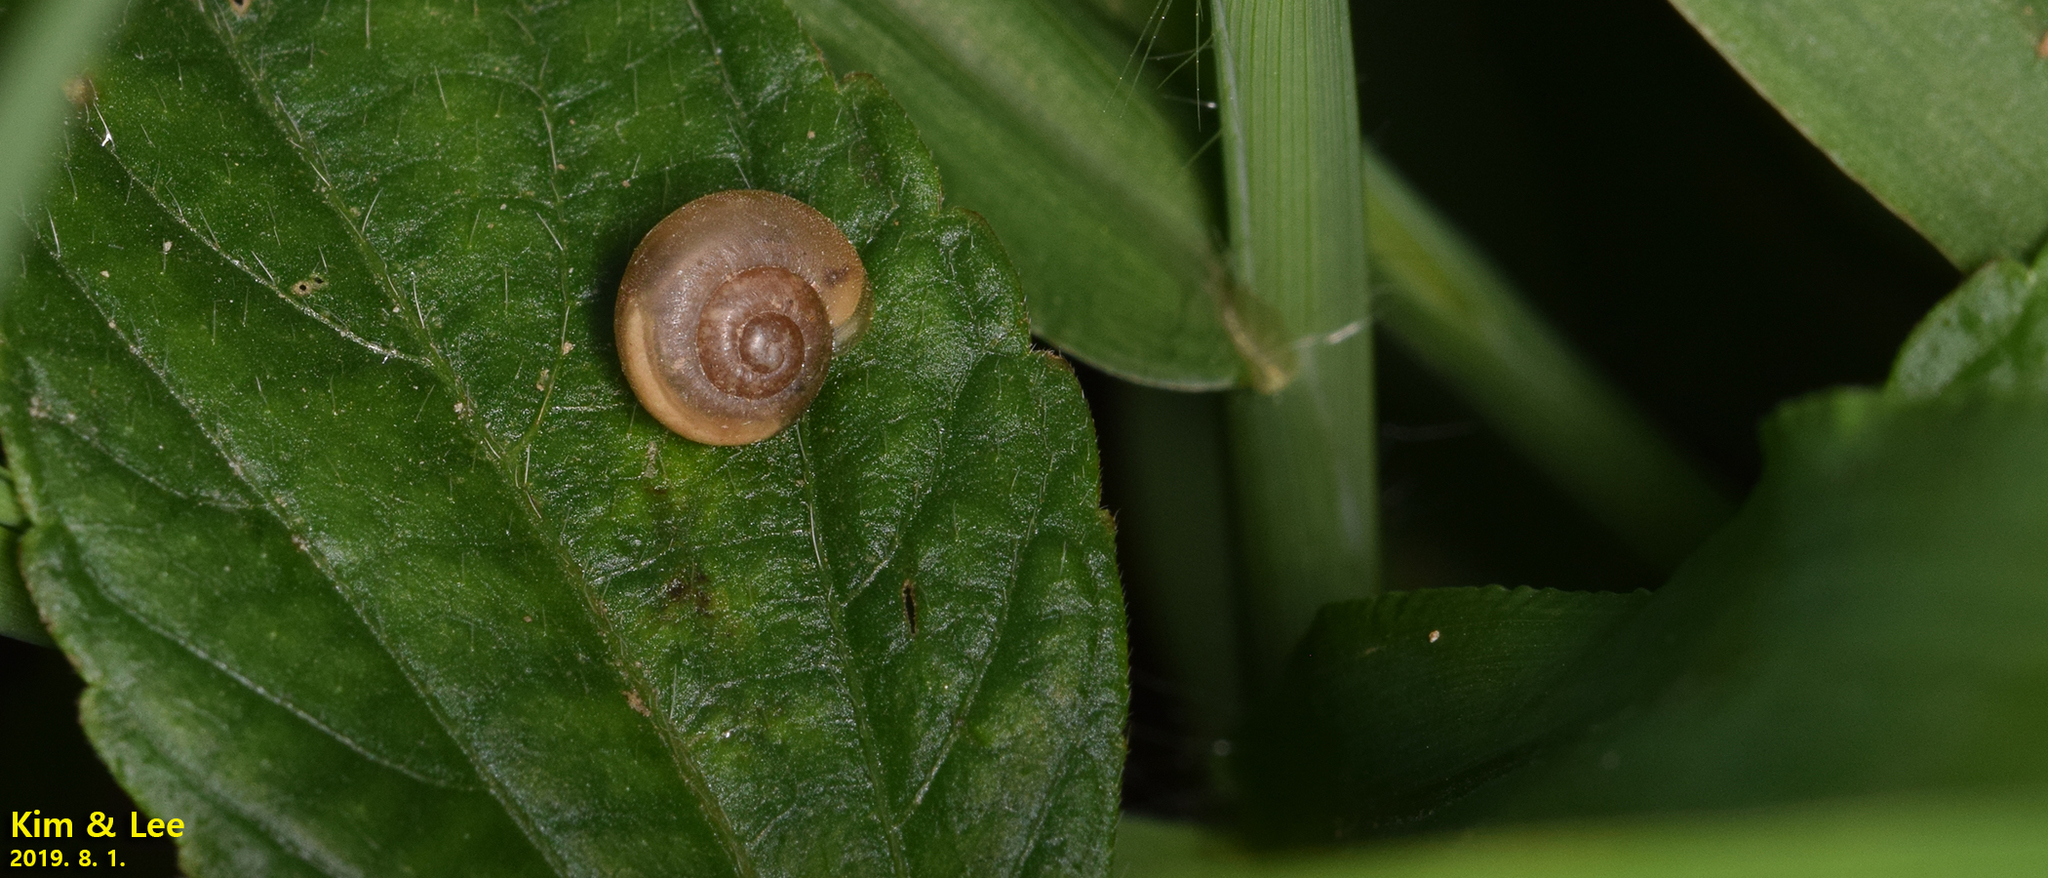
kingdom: Animalia
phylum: Mollusca
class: Gastropoda
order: Stylommatophora
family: Camaenidae
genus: Acusta
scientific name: Acusta redfieldi
